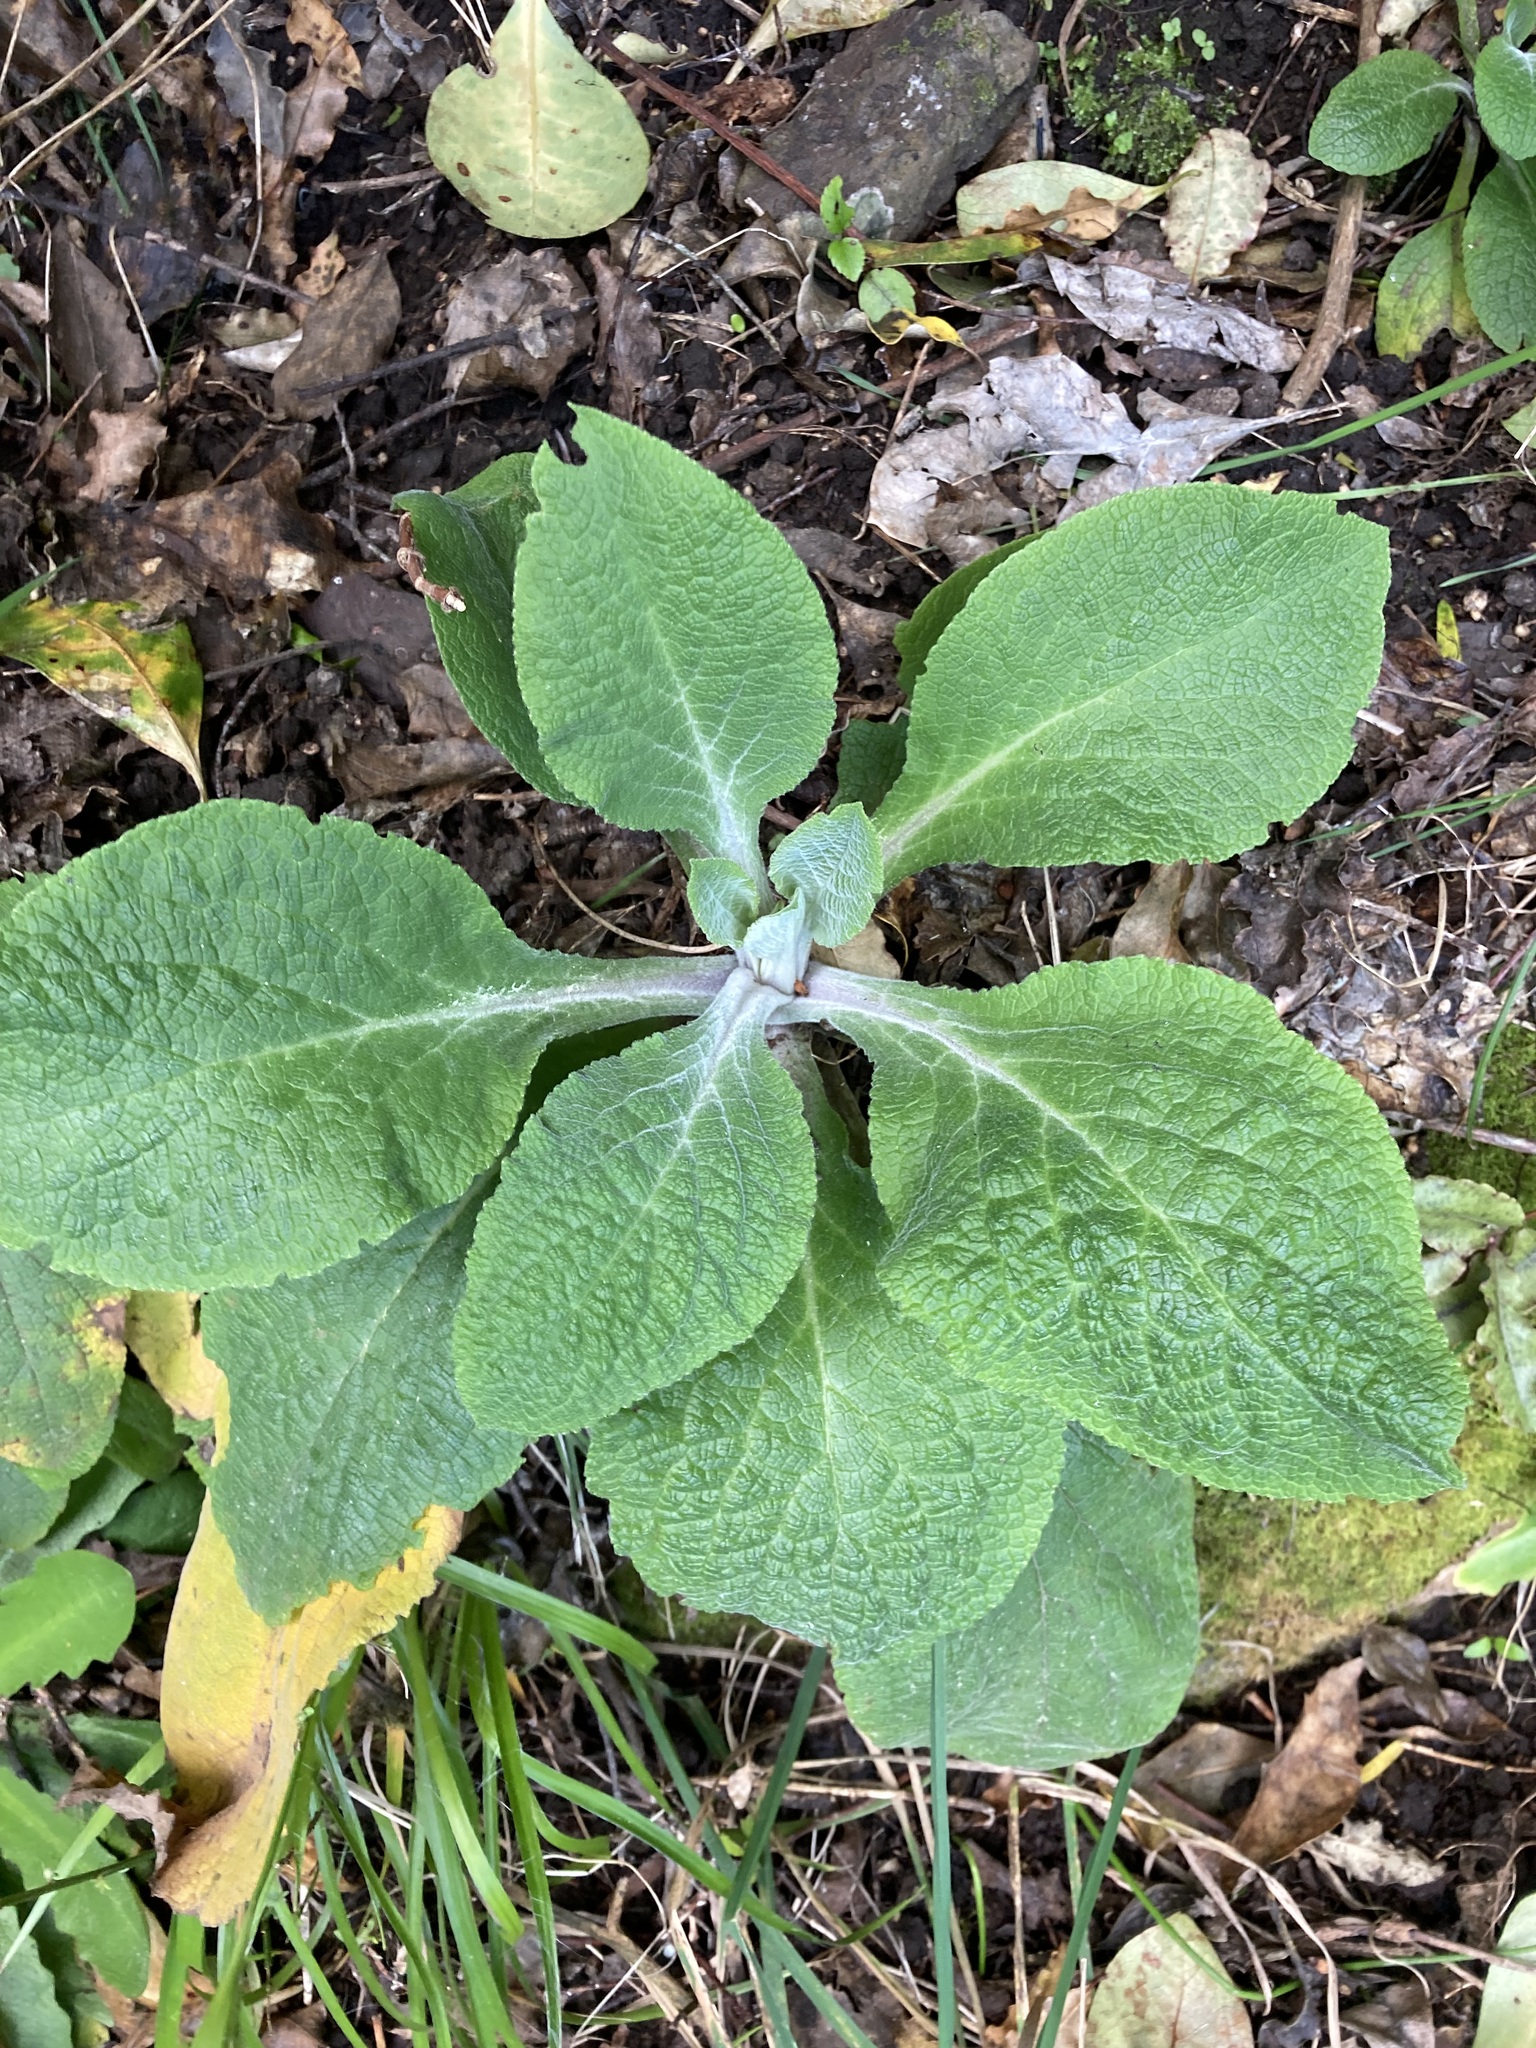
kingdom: Plantae
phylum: Tracheophyta
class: Magnoliopsida
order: Lamiales
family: Plantaginaceae
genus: Digitalis
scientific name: Digitalis purpurea
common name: Foxglove
